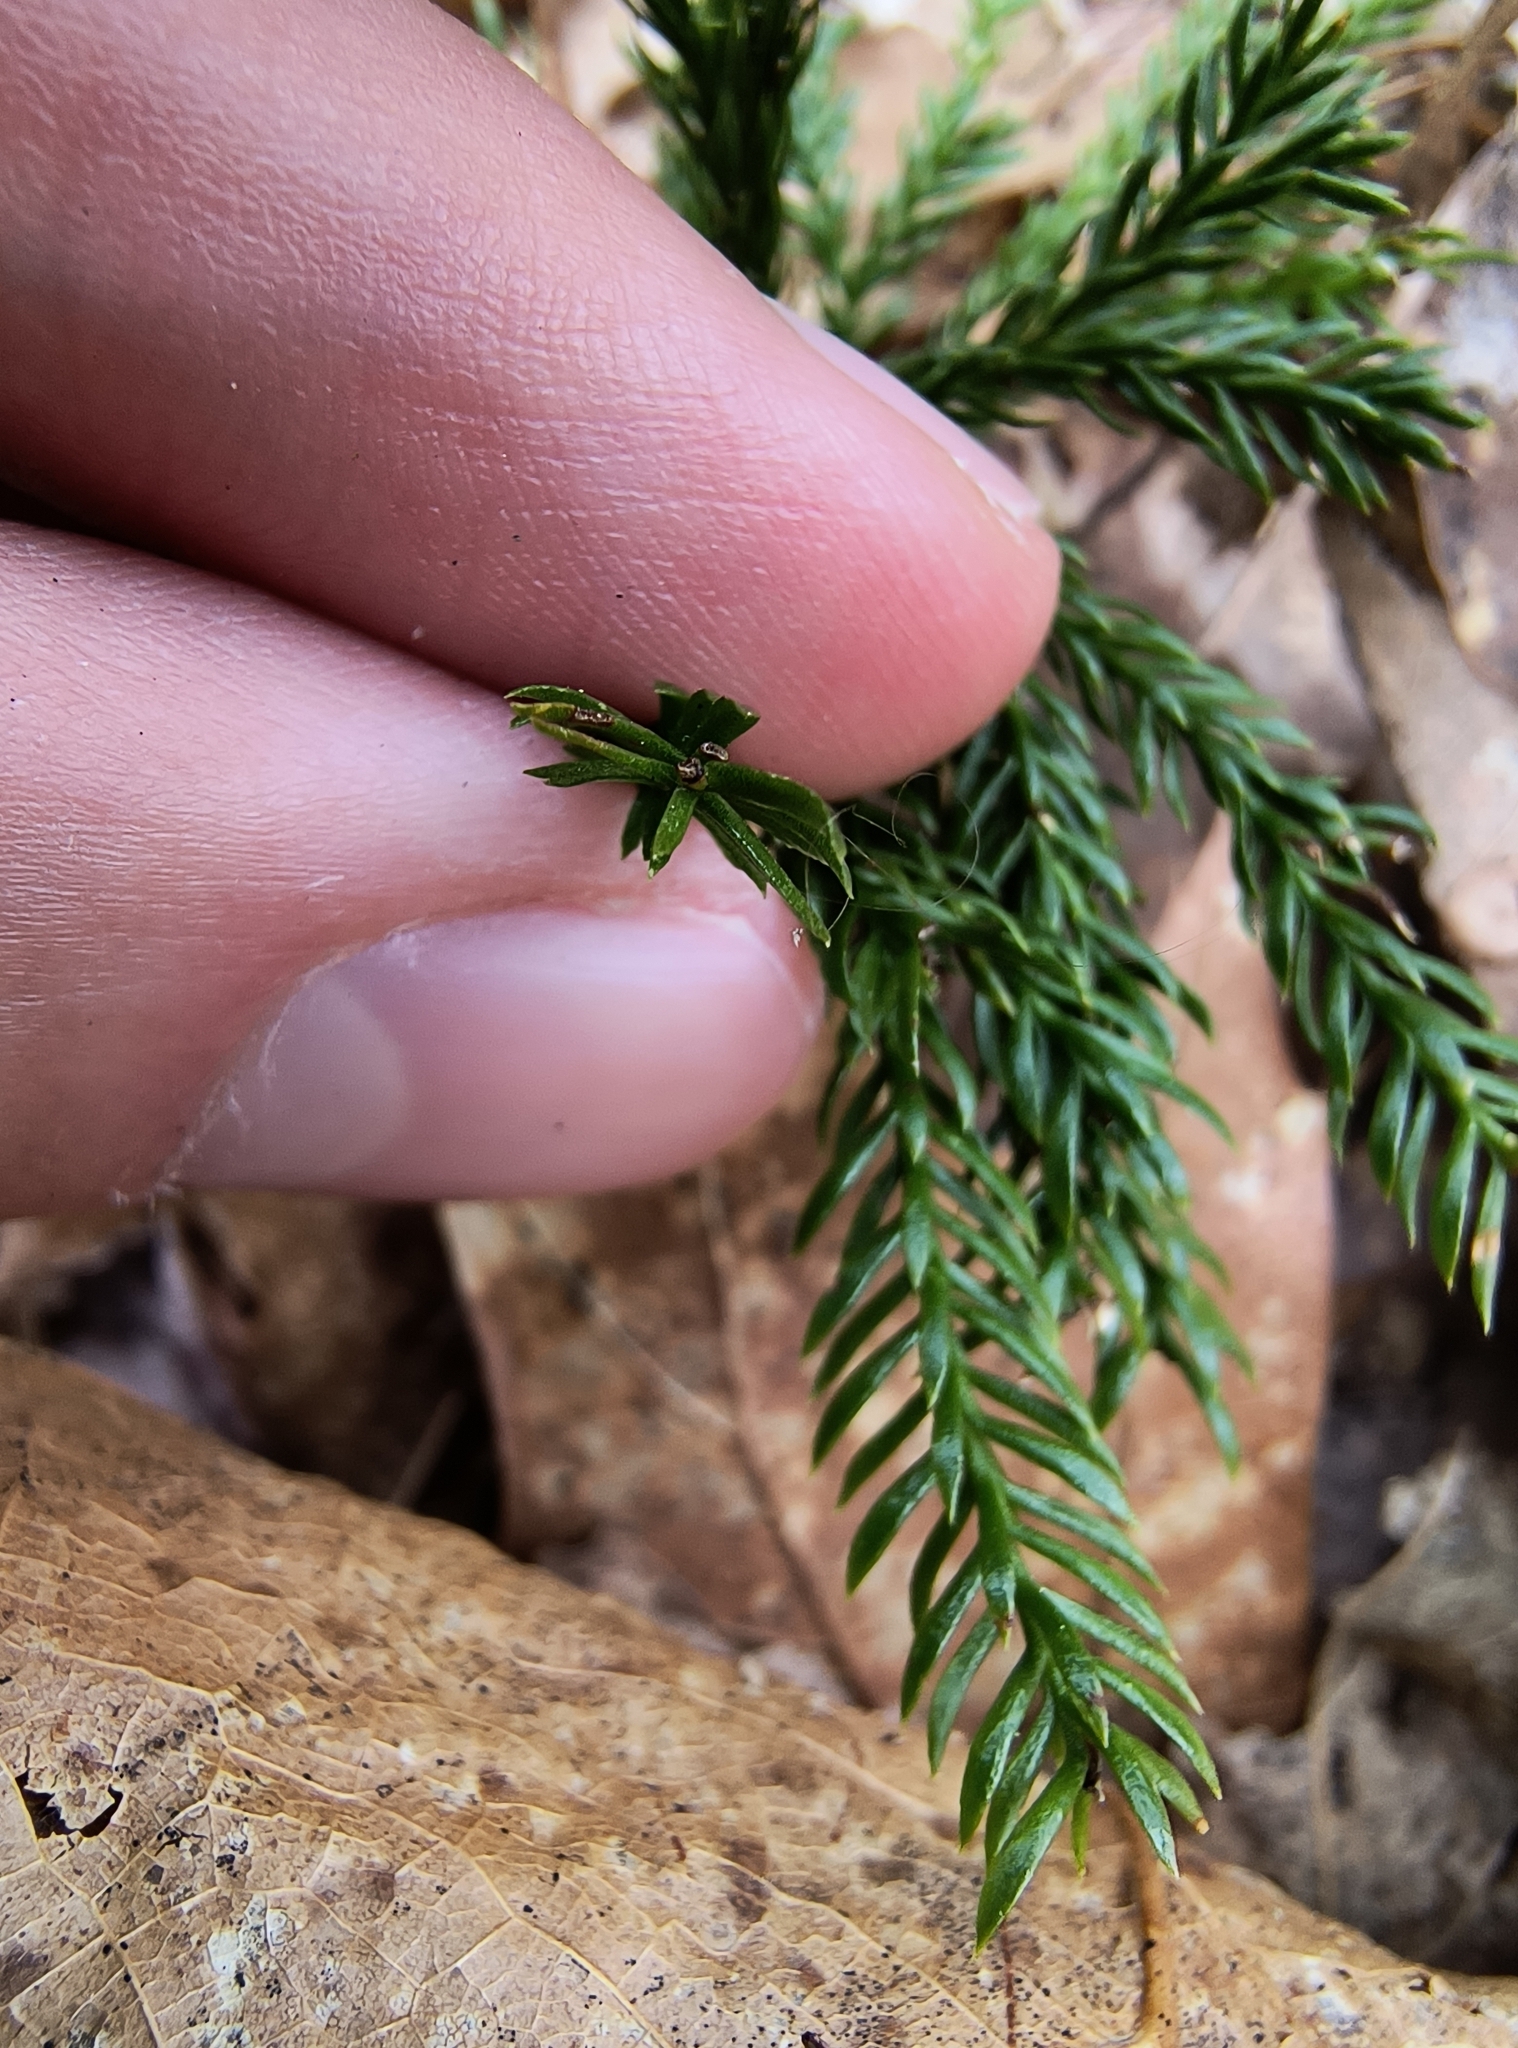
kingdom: Plantae
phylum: Tracheophyta
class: Lycopodiopsida
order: Lycopodiales
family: Lycopodiaceae
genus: Dendrolycopodium
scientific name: Dendrolycopodium obscurum
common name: Common ground-pine
